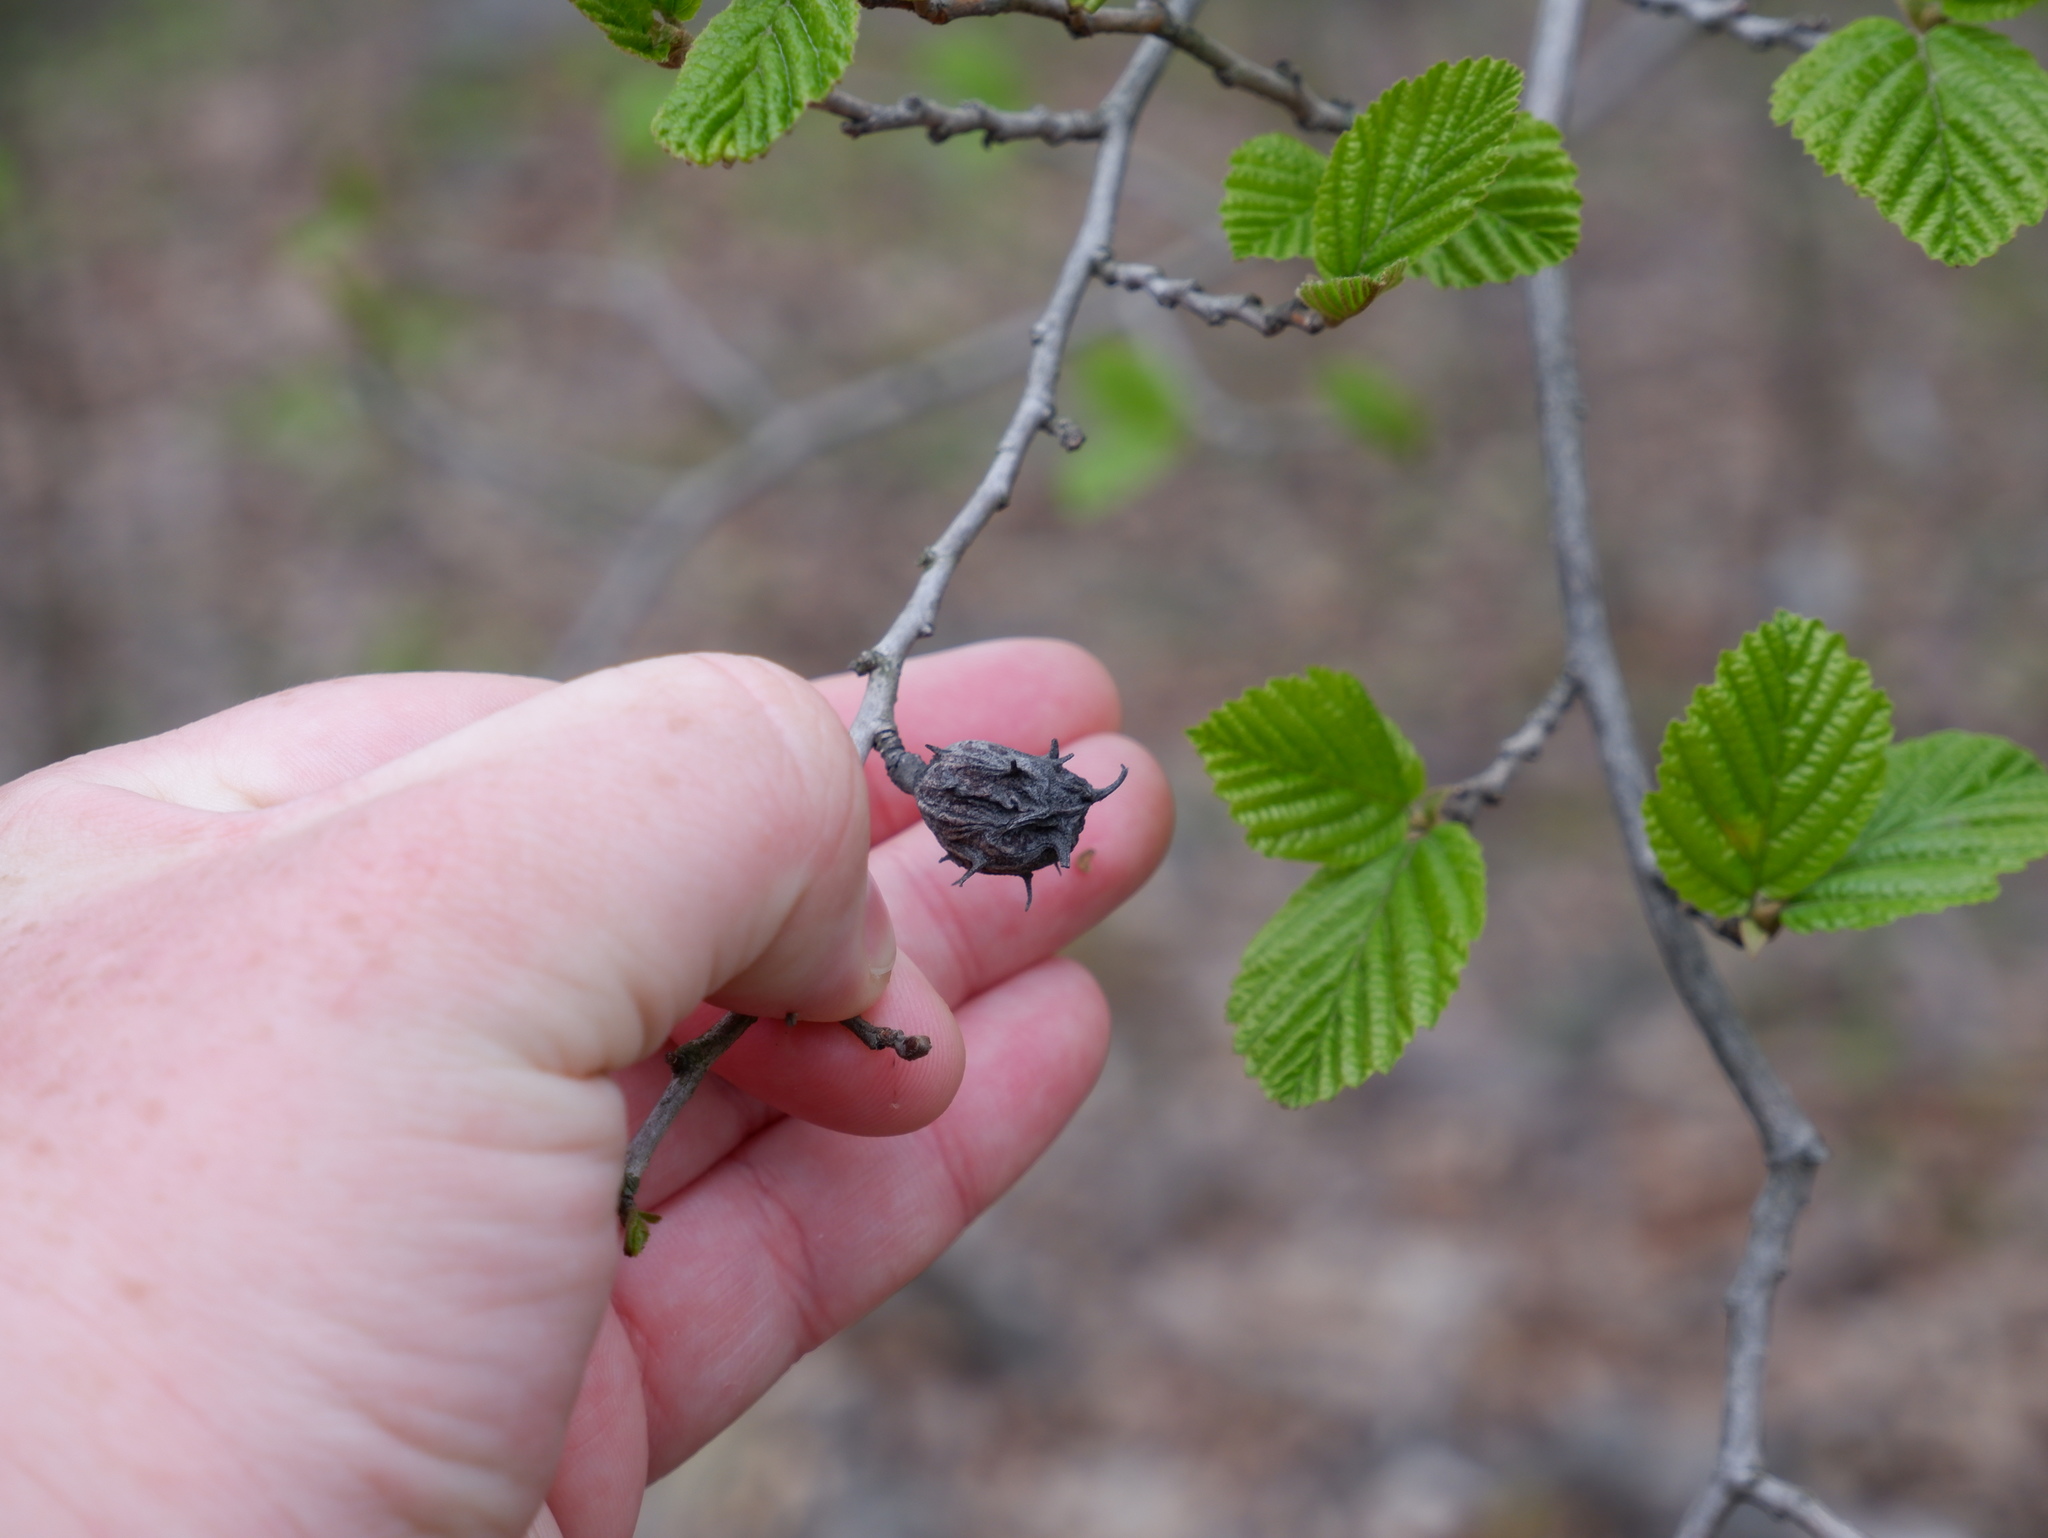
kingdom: Animalia
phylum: Arthropoda
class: Insecta
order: Hemiptera
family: Aphididae
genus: Hamamelistes
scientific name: Hamamelistes spinosus
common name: Witch hazel gall aphid
